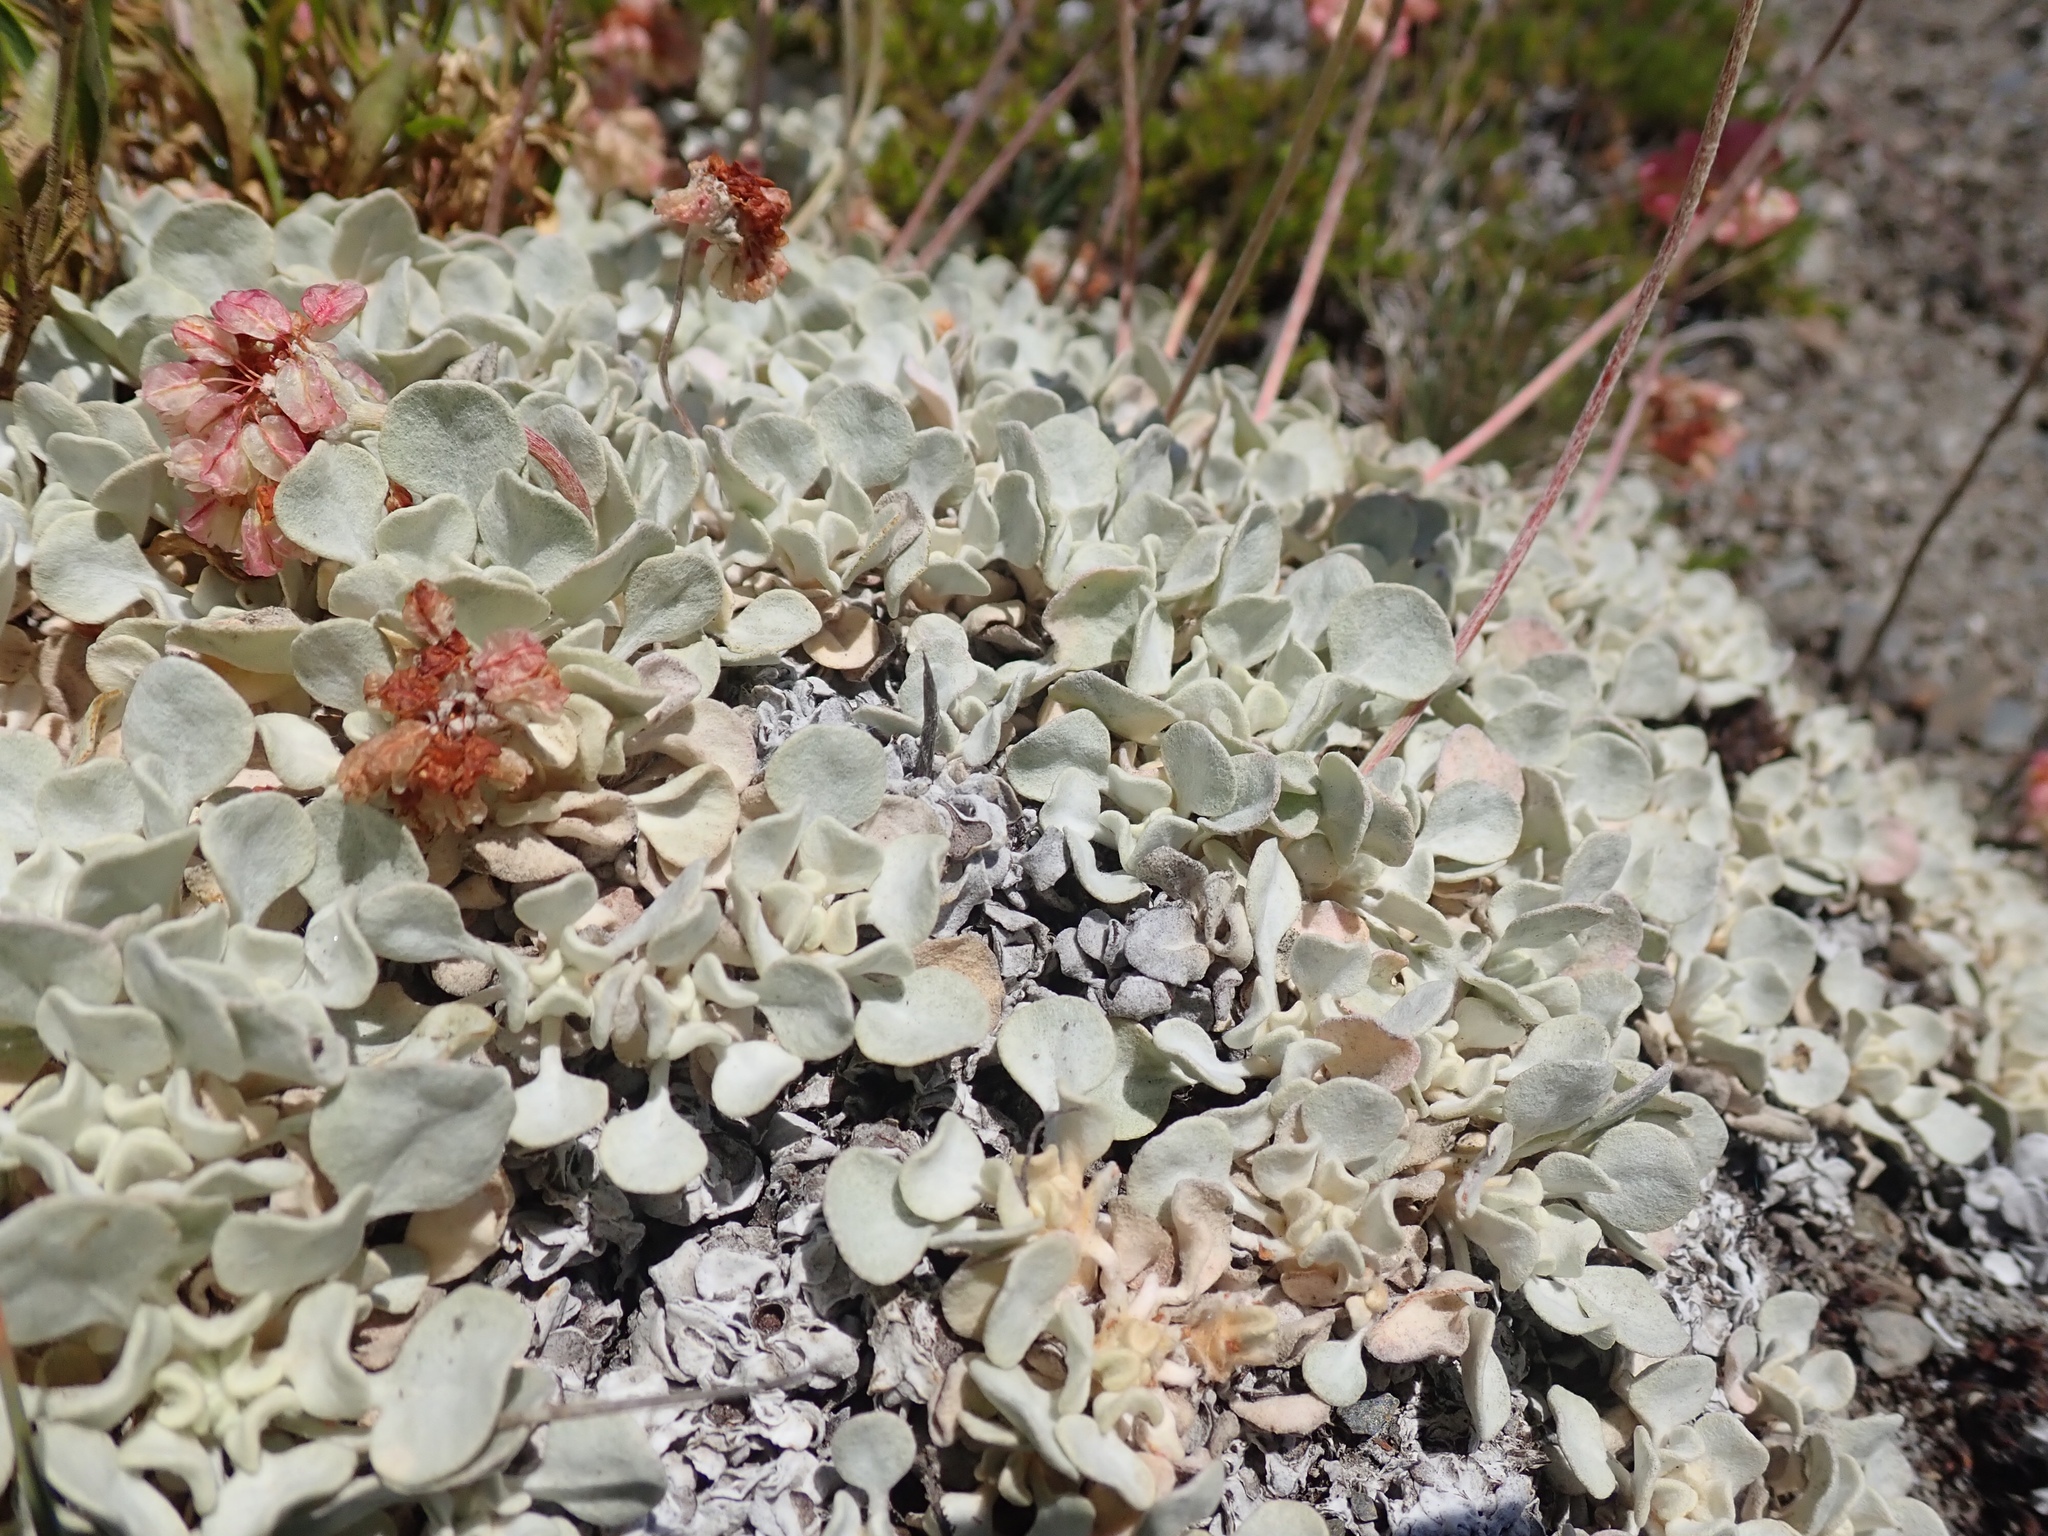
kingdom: Plantae
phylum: Tracheophyta
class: Magnoliopsida
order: Caryophyllales
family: Polygonaceae
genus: Eriogonum
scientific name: Eriogonum ovalifolium
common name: Cushion buckwheat
